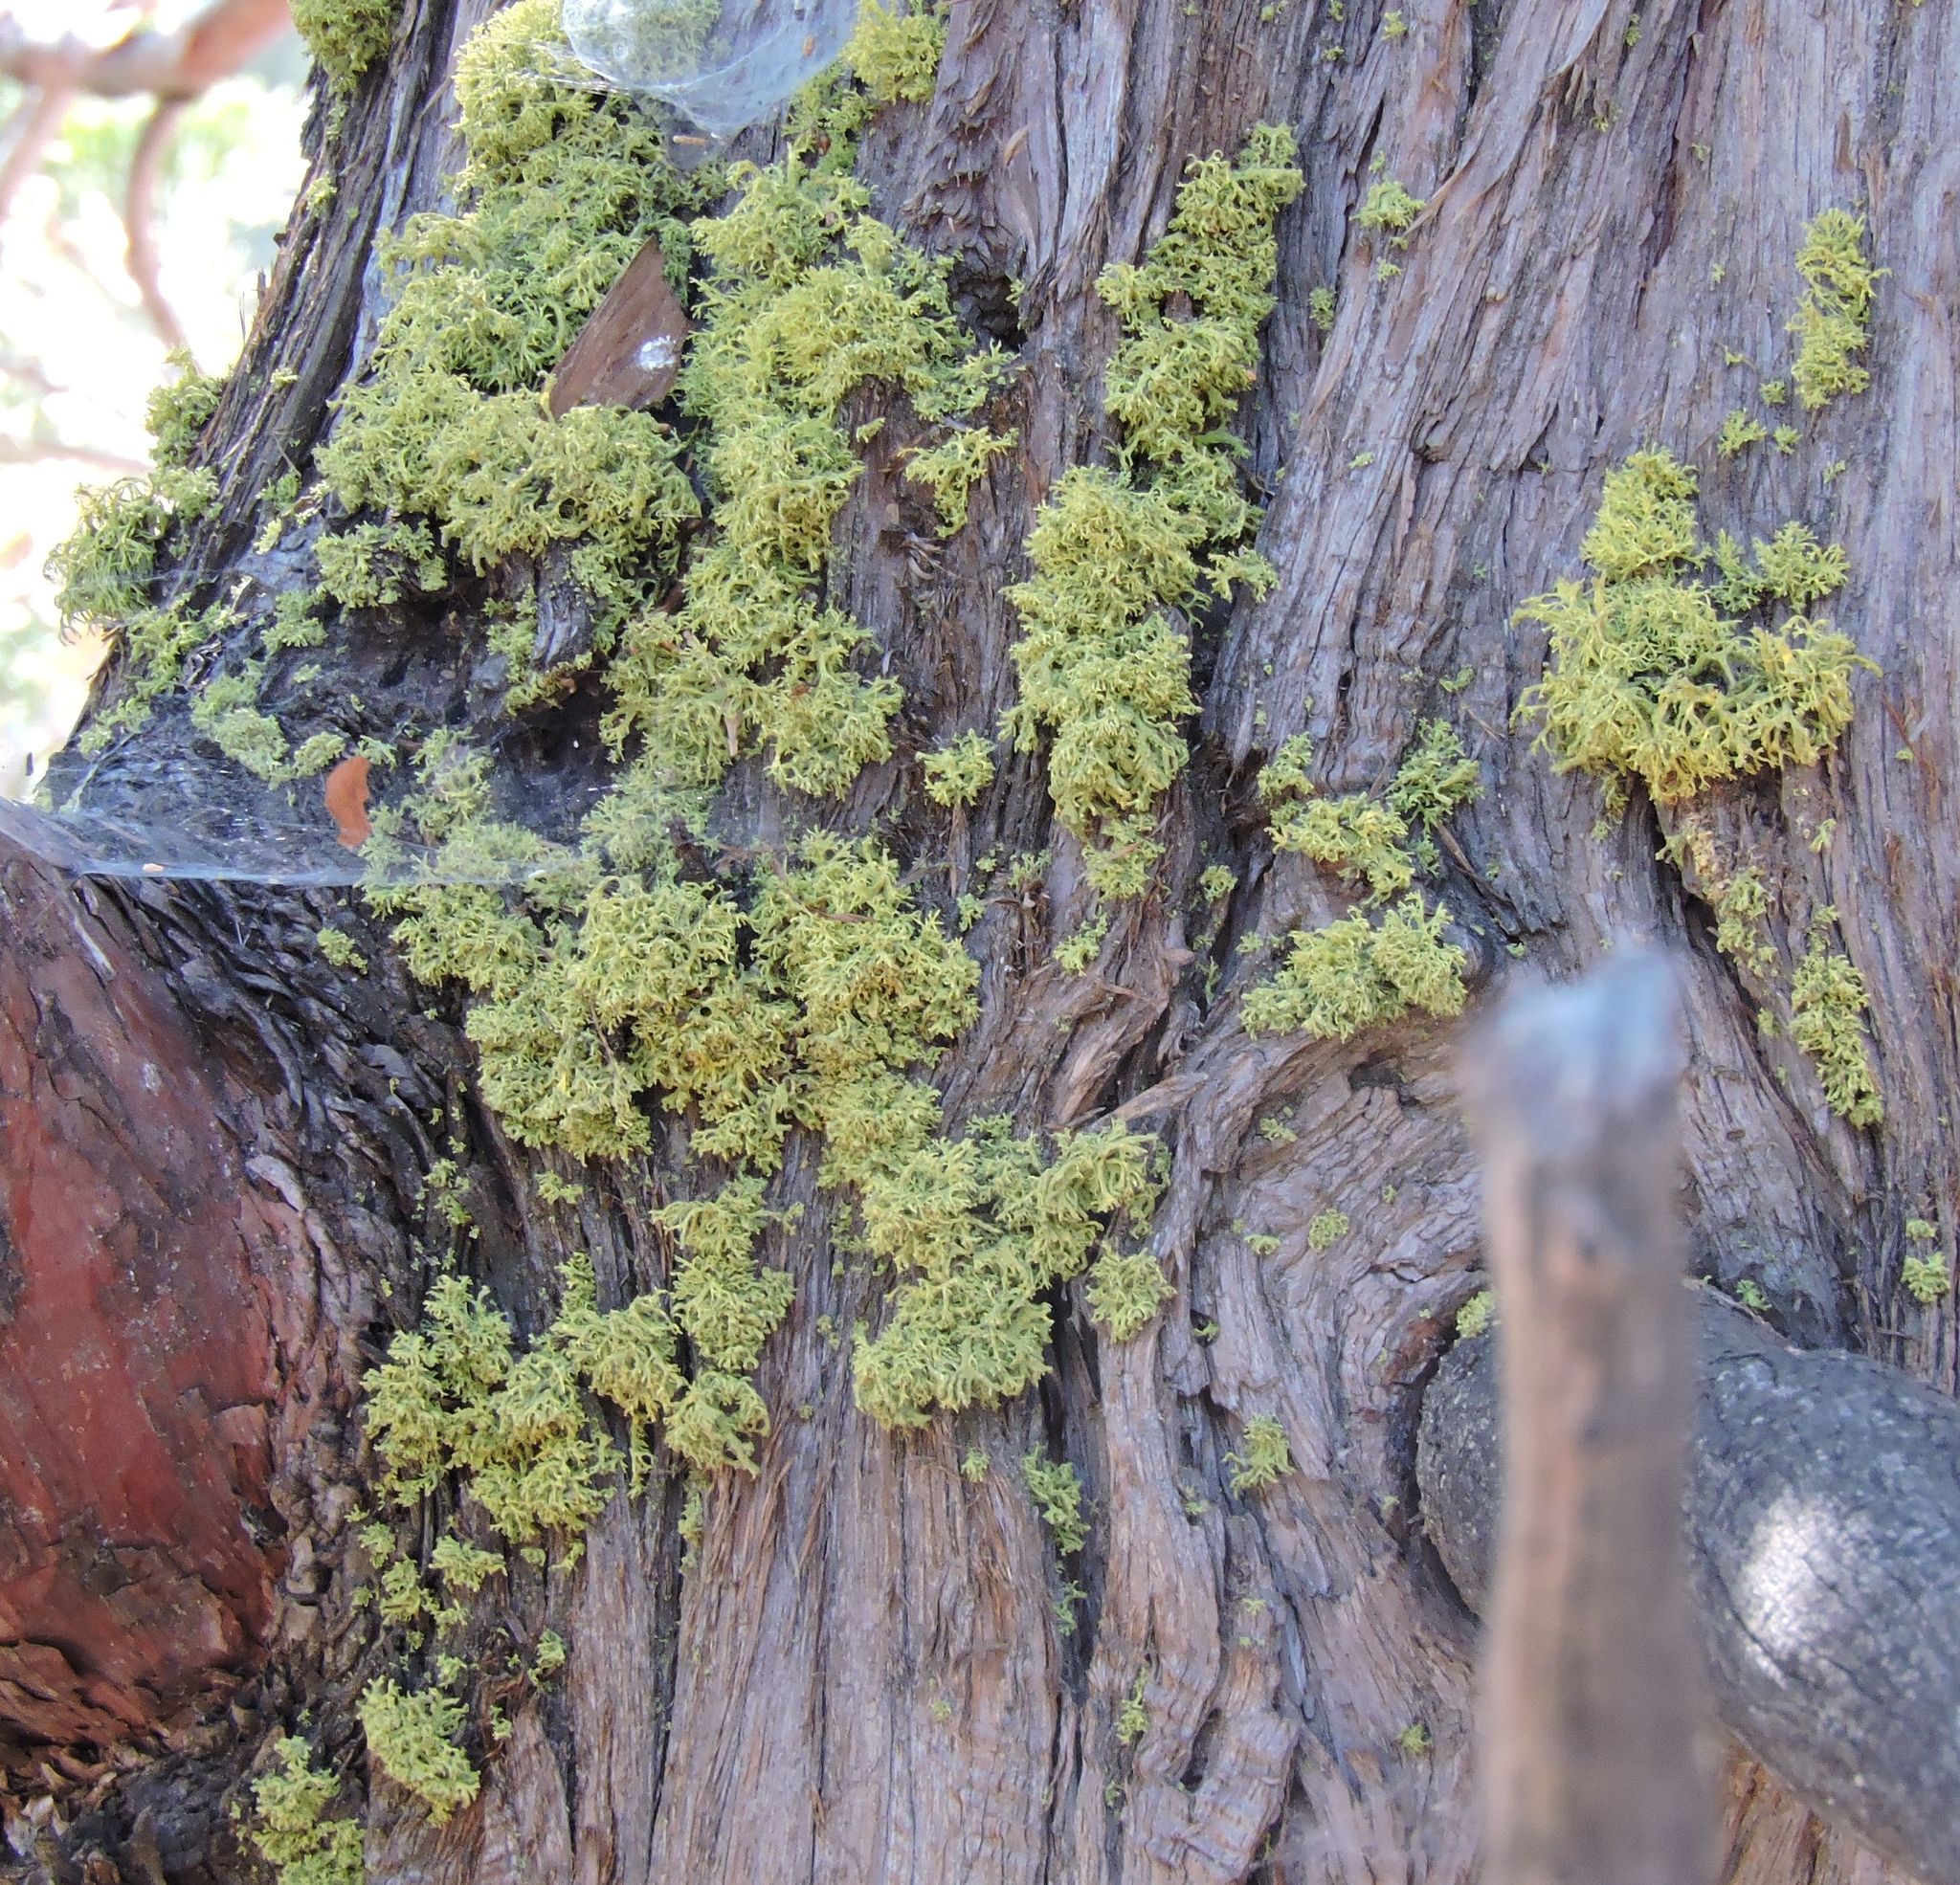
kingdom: Fungi
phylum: Ascomycota
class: Lecanoromycetes
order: Lecanorales
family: Parmeliaceae
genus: Letharia
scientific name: Letharia vulpina
